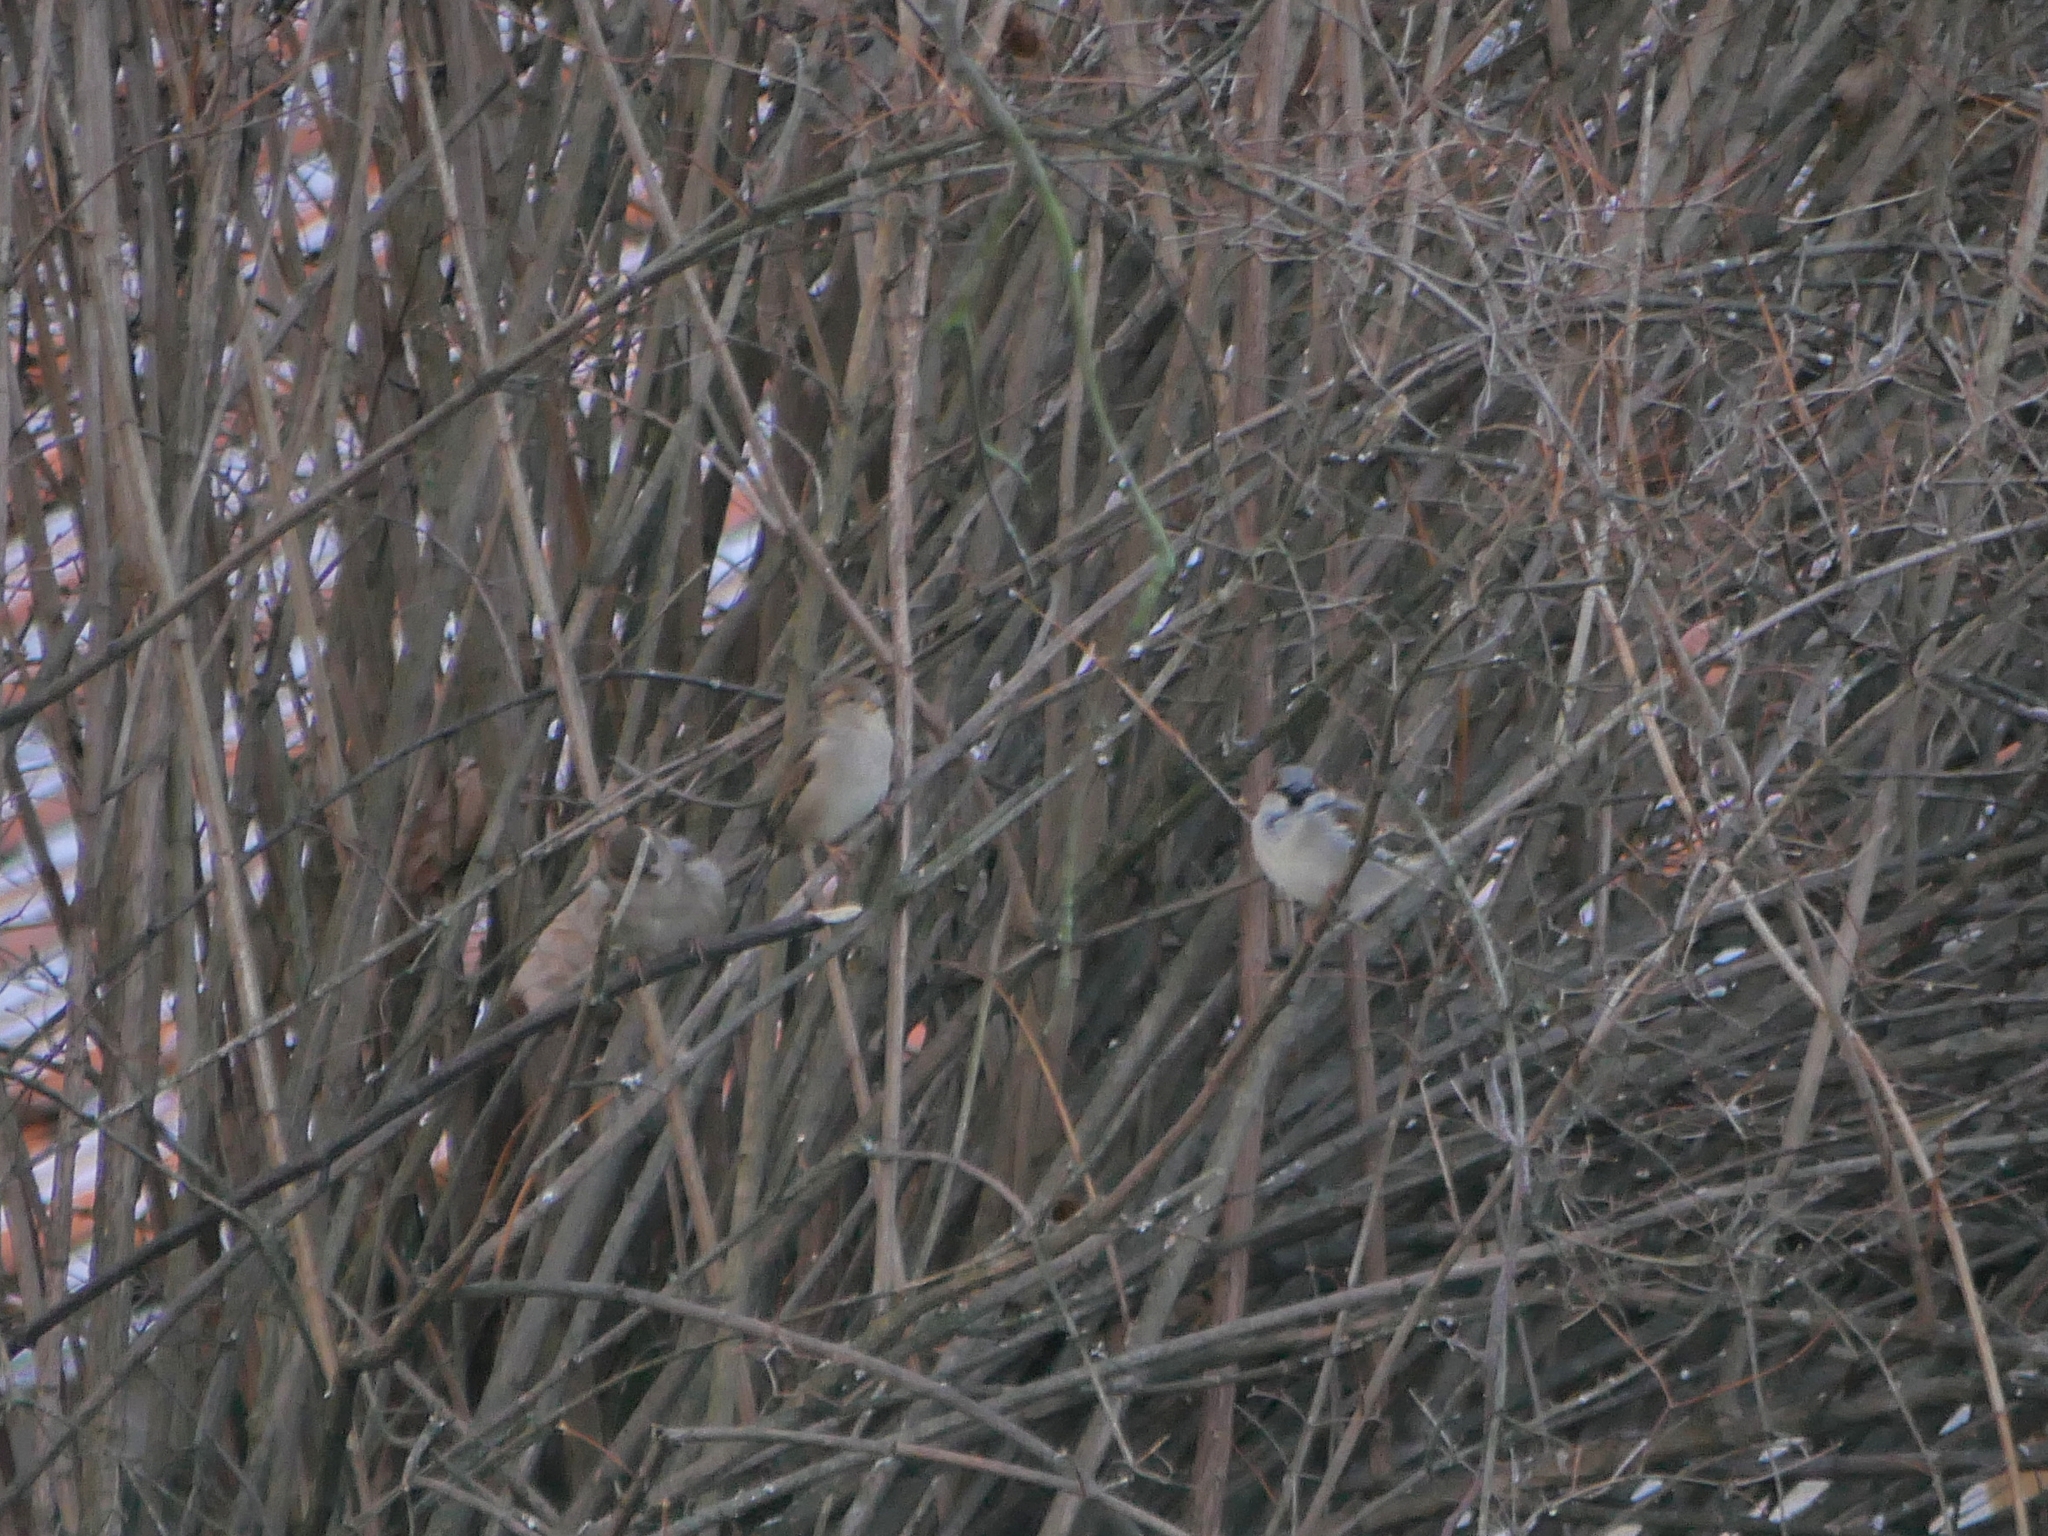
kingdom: Animalia
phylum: Chordata
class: Aves
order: Passeriformes
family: Passeridae
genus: Passer
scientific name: Passer domesticus
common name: House sparrow
